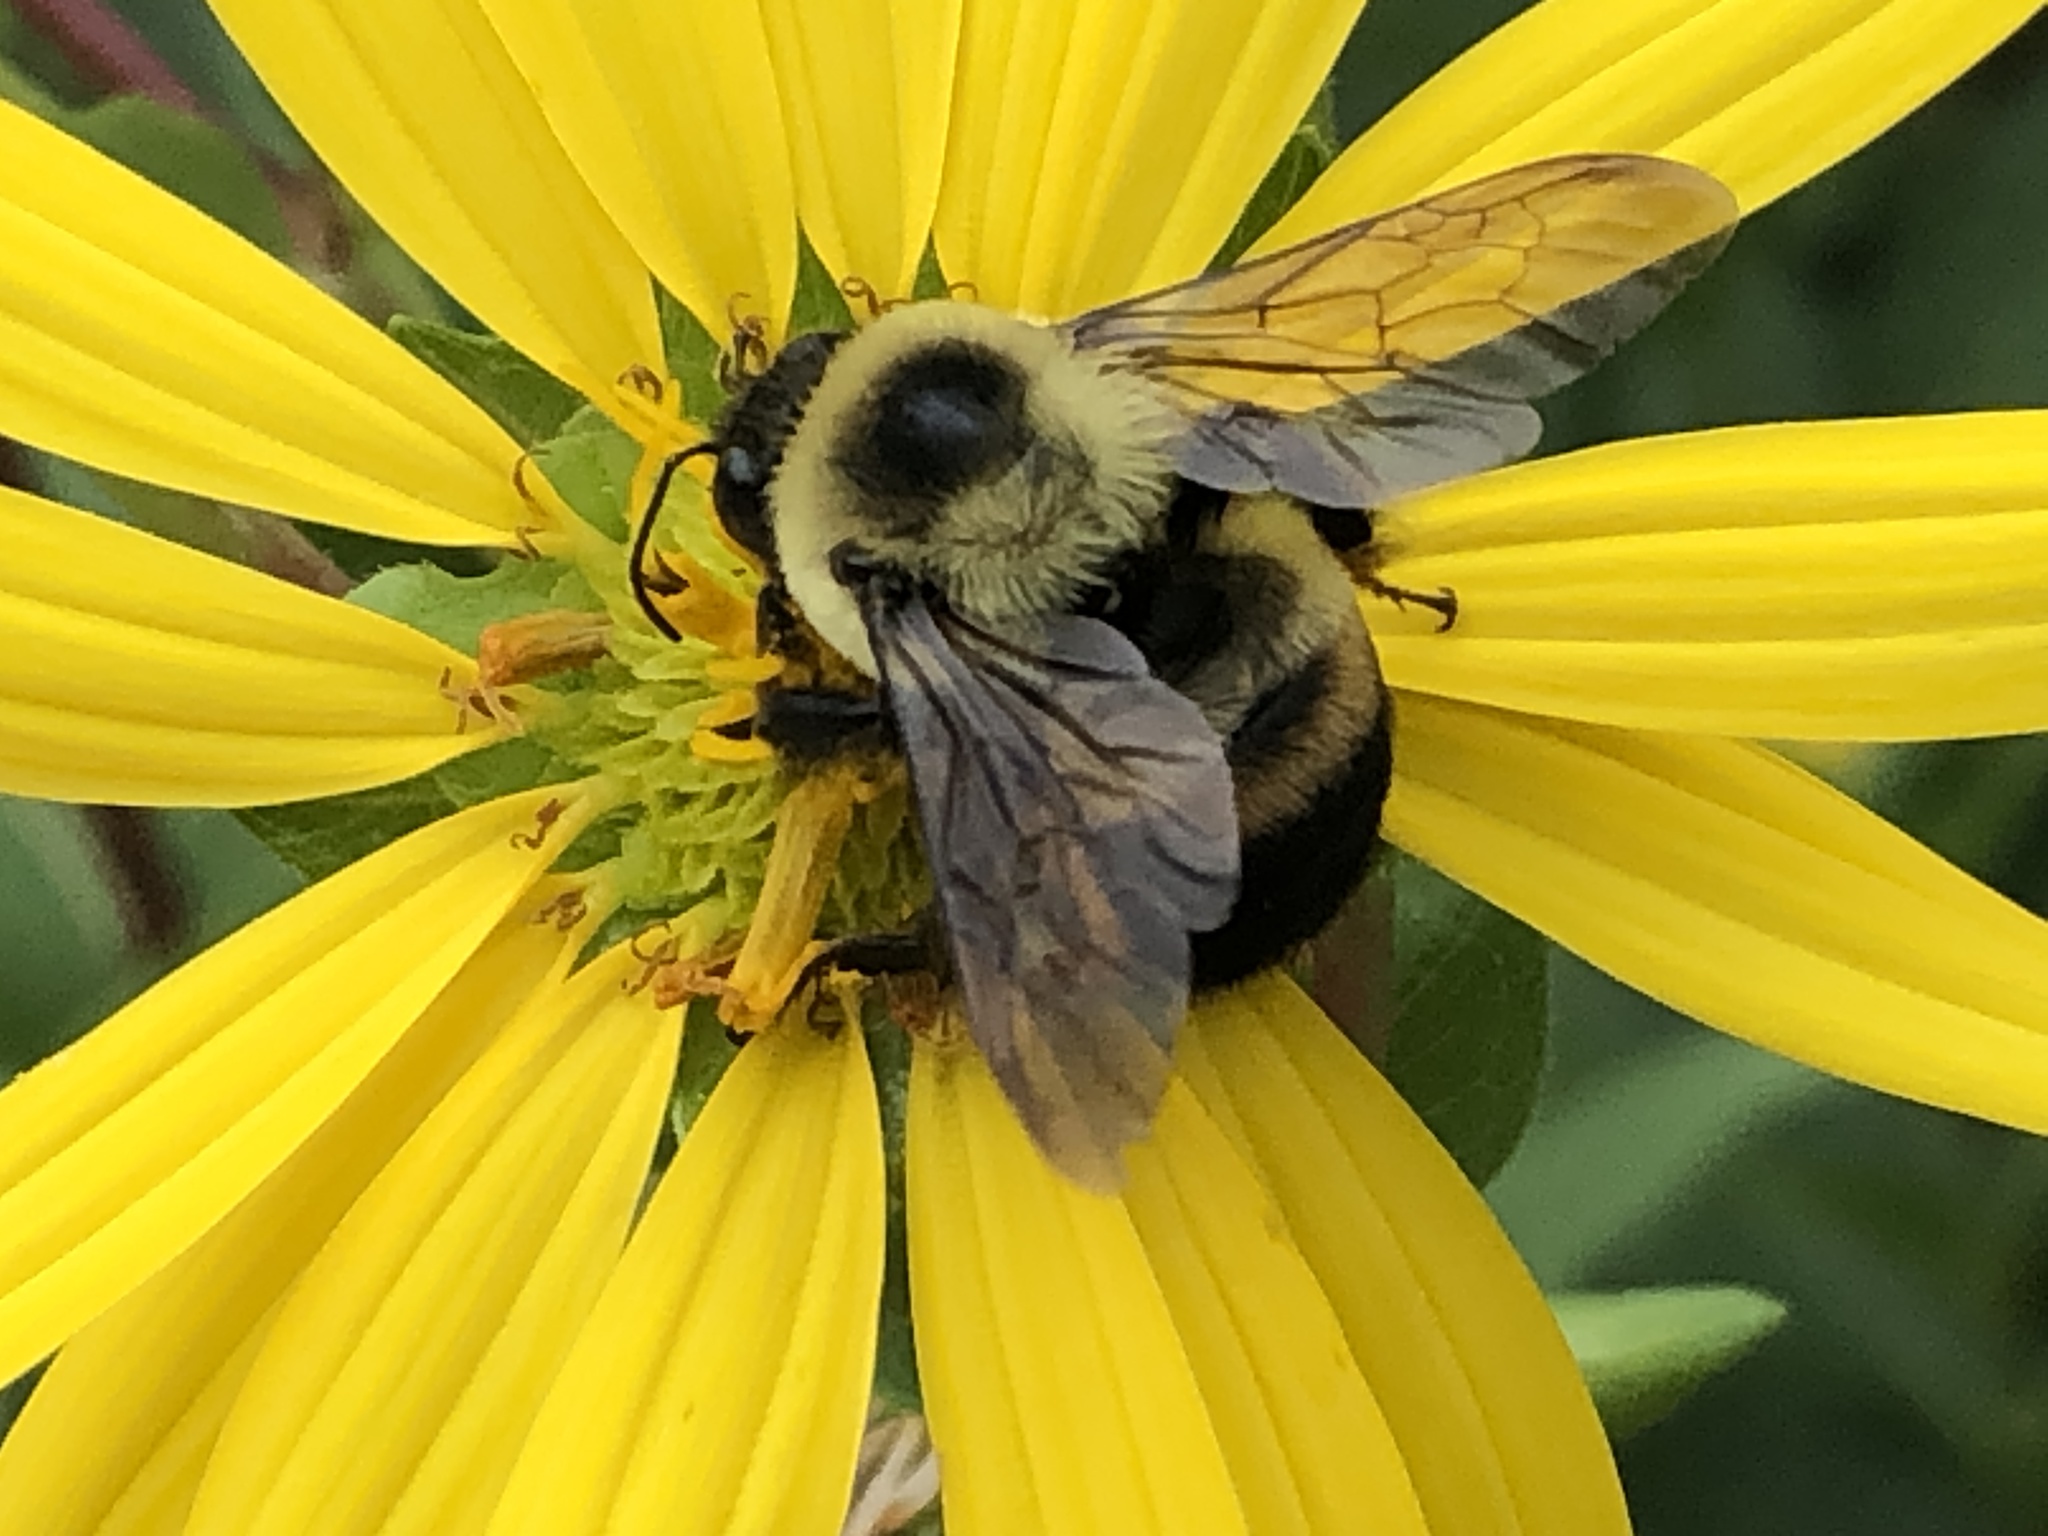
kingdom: Animalia
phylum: Arthropoda
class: Insecta
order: Hymenoptera
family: Apidae
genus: Bombus
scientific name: Bombus griseocollis
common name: Brown-belted bumble bee
